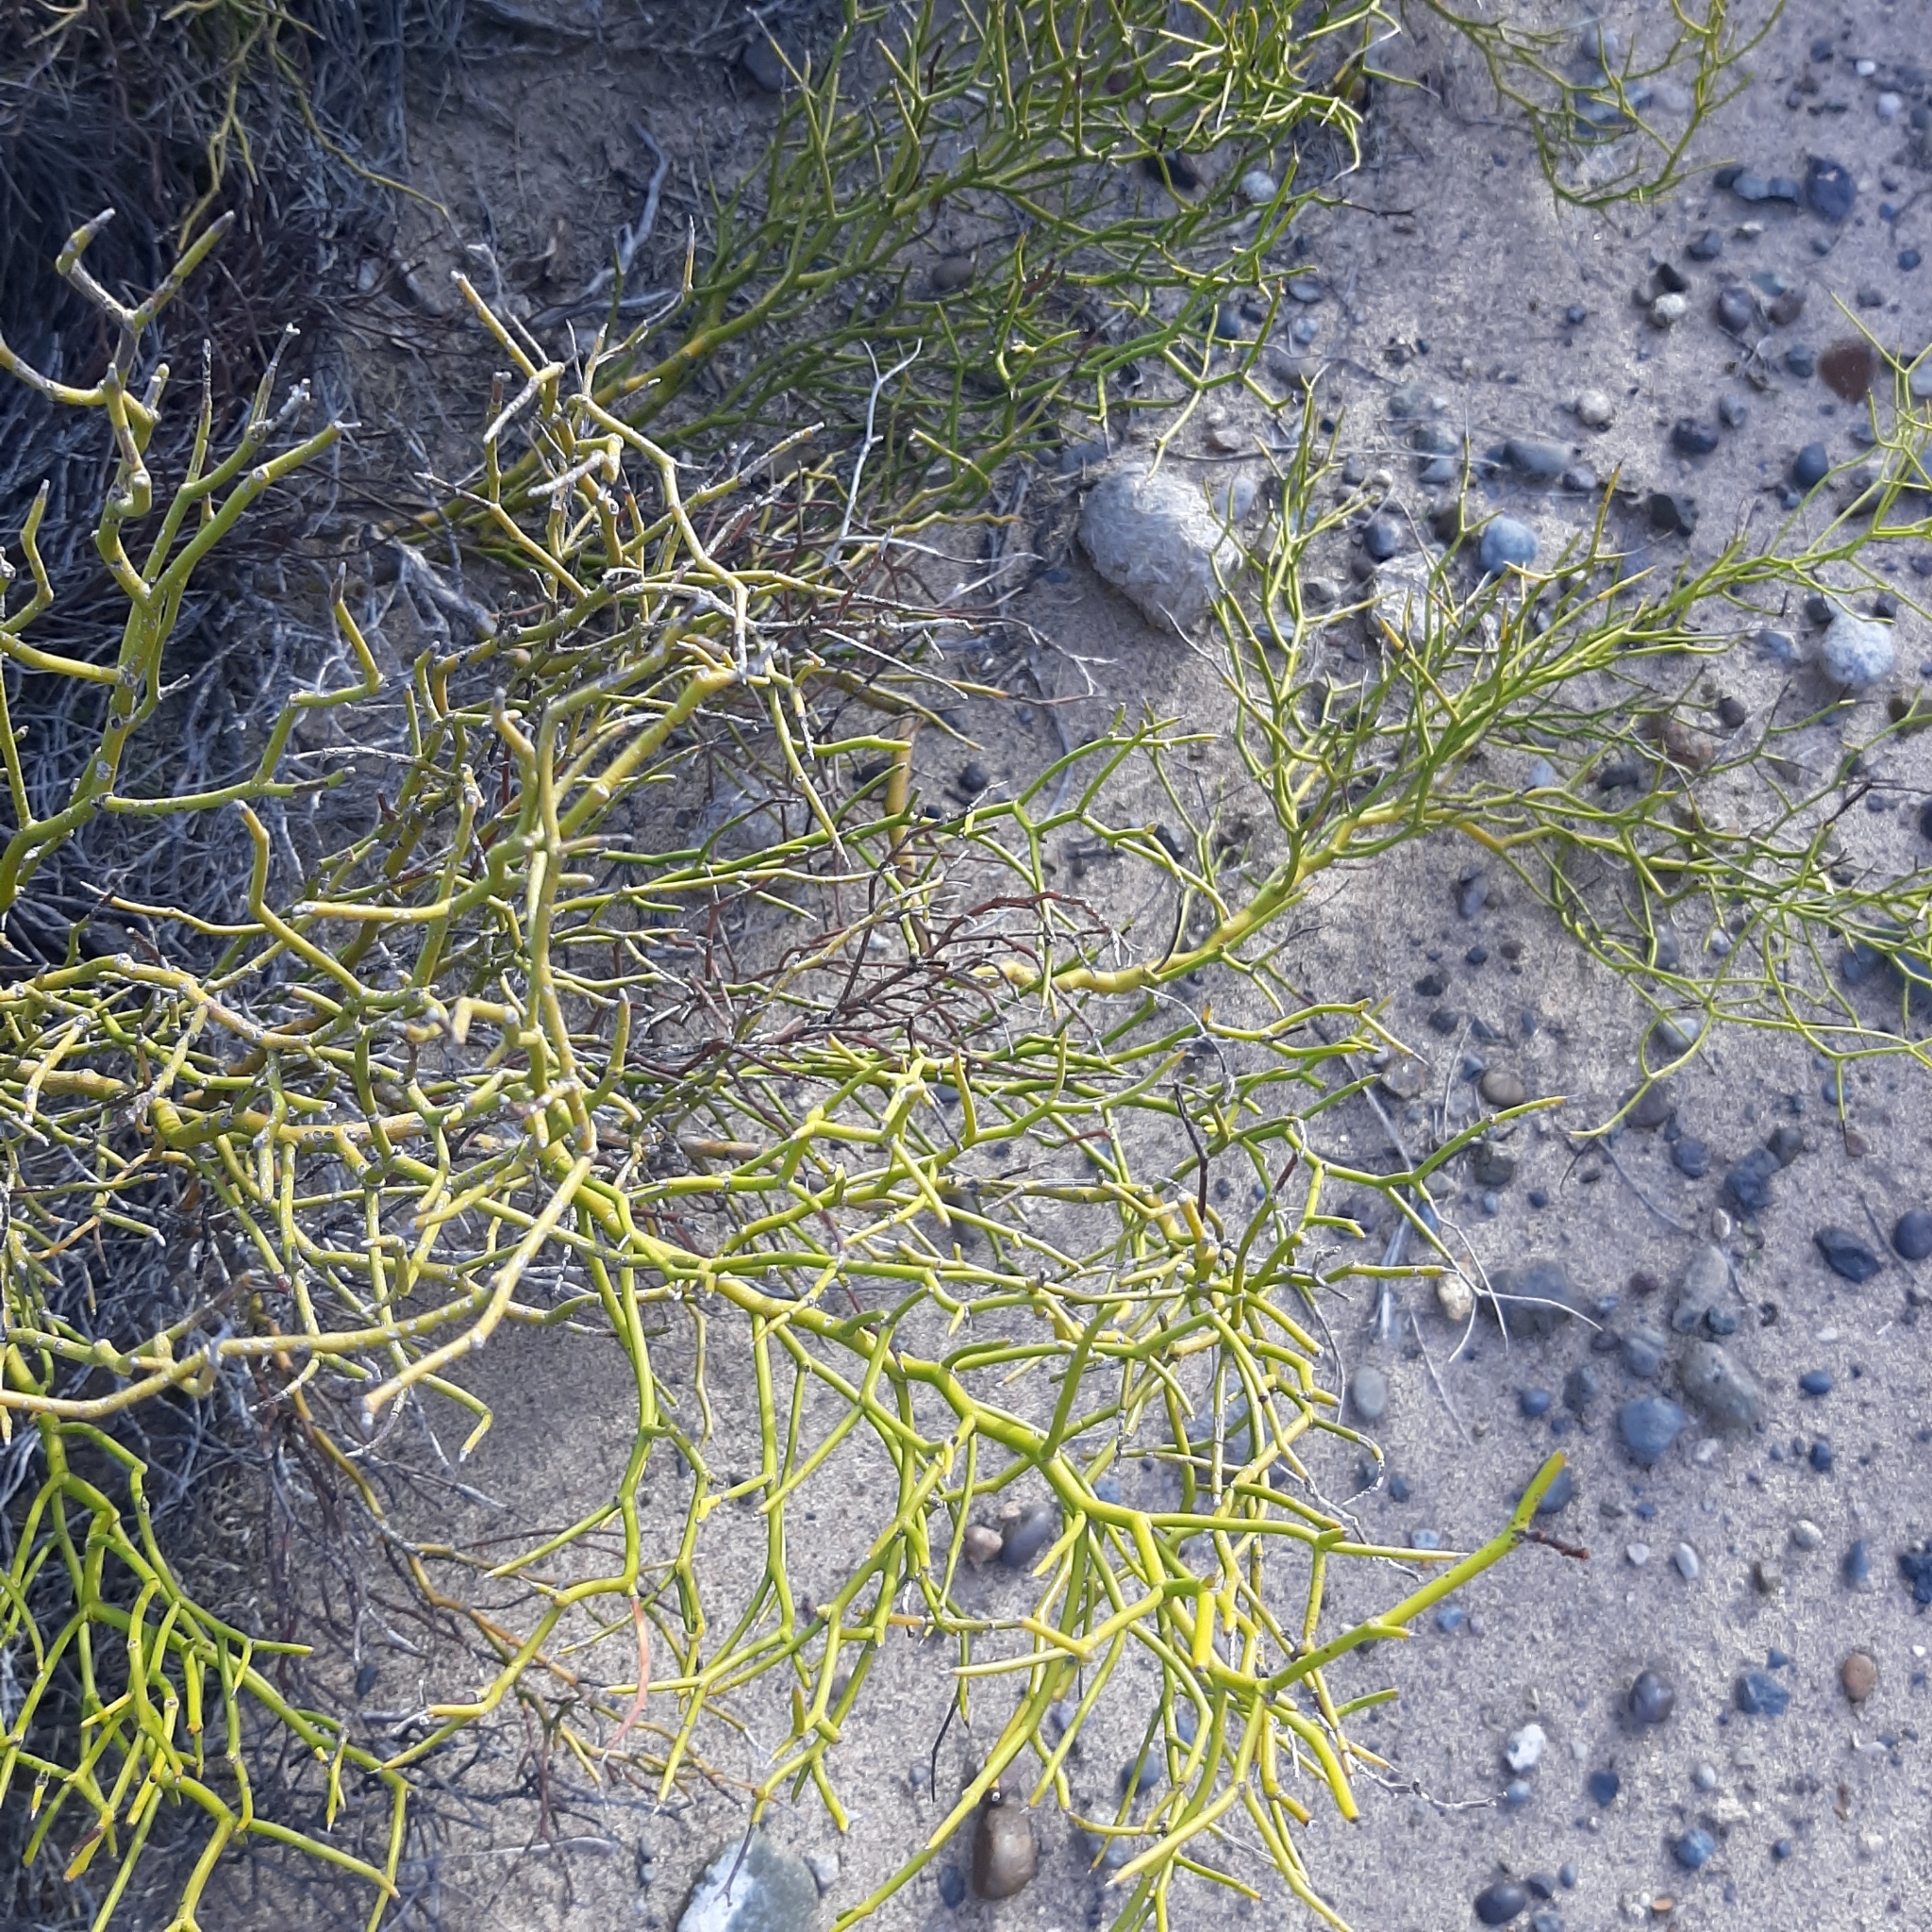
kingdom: Plantae
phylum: Tracheophyta
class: Magnoliopsida
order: Fabales
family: Fabaceae
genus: Senna
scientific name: Senna aphylla
